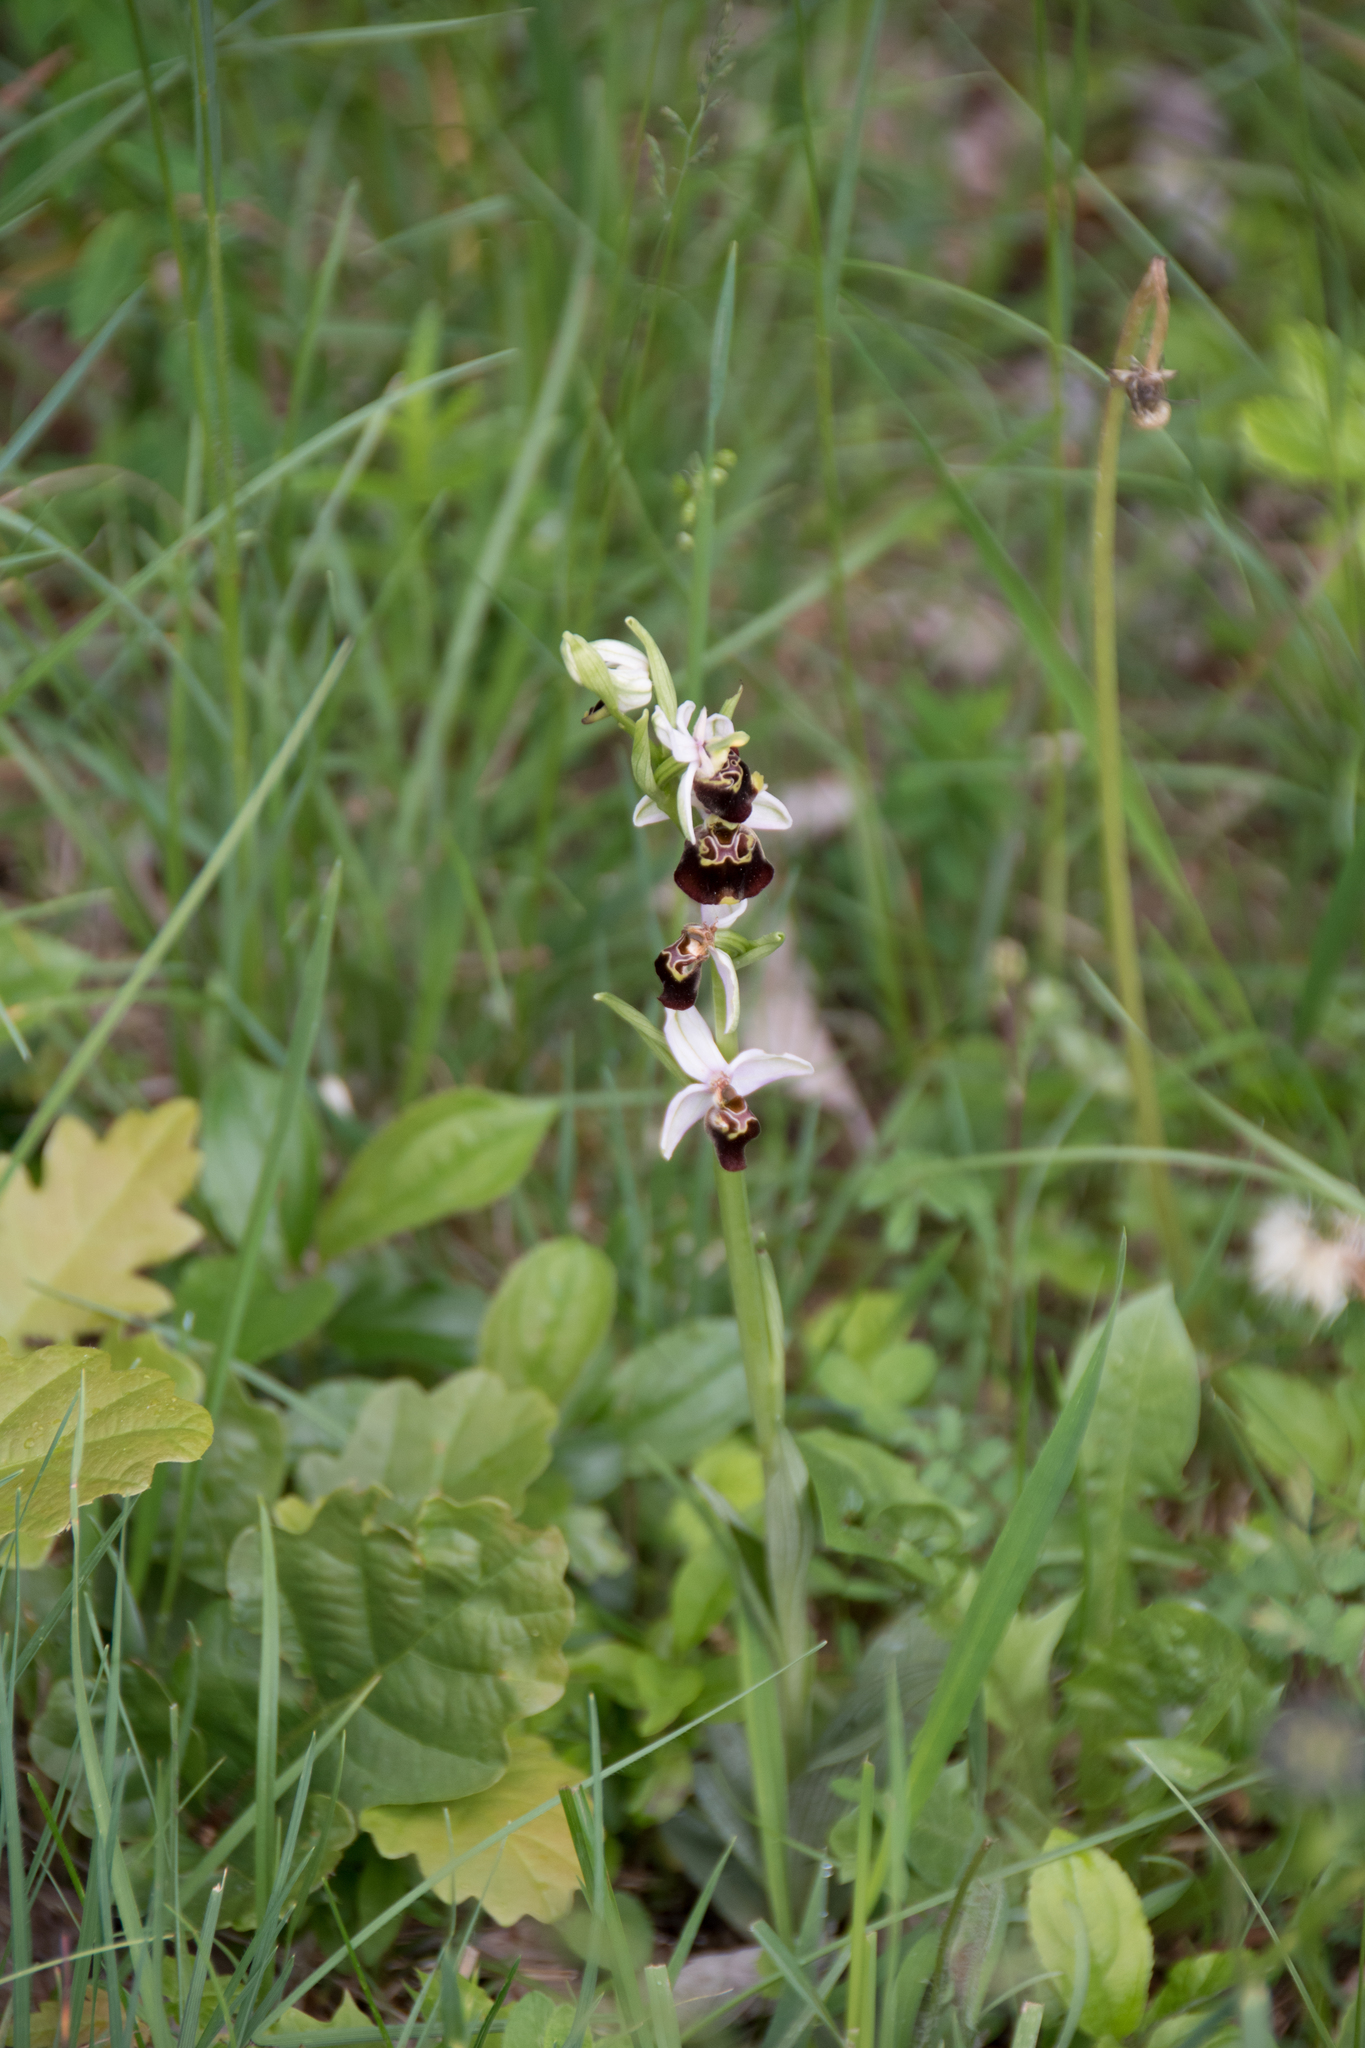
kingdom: Plantae
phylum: Tracheophyta
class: Liliopsida
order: Asparagales
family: Orchidaceae
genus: Ophrys
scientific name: Ophrys holosericea
